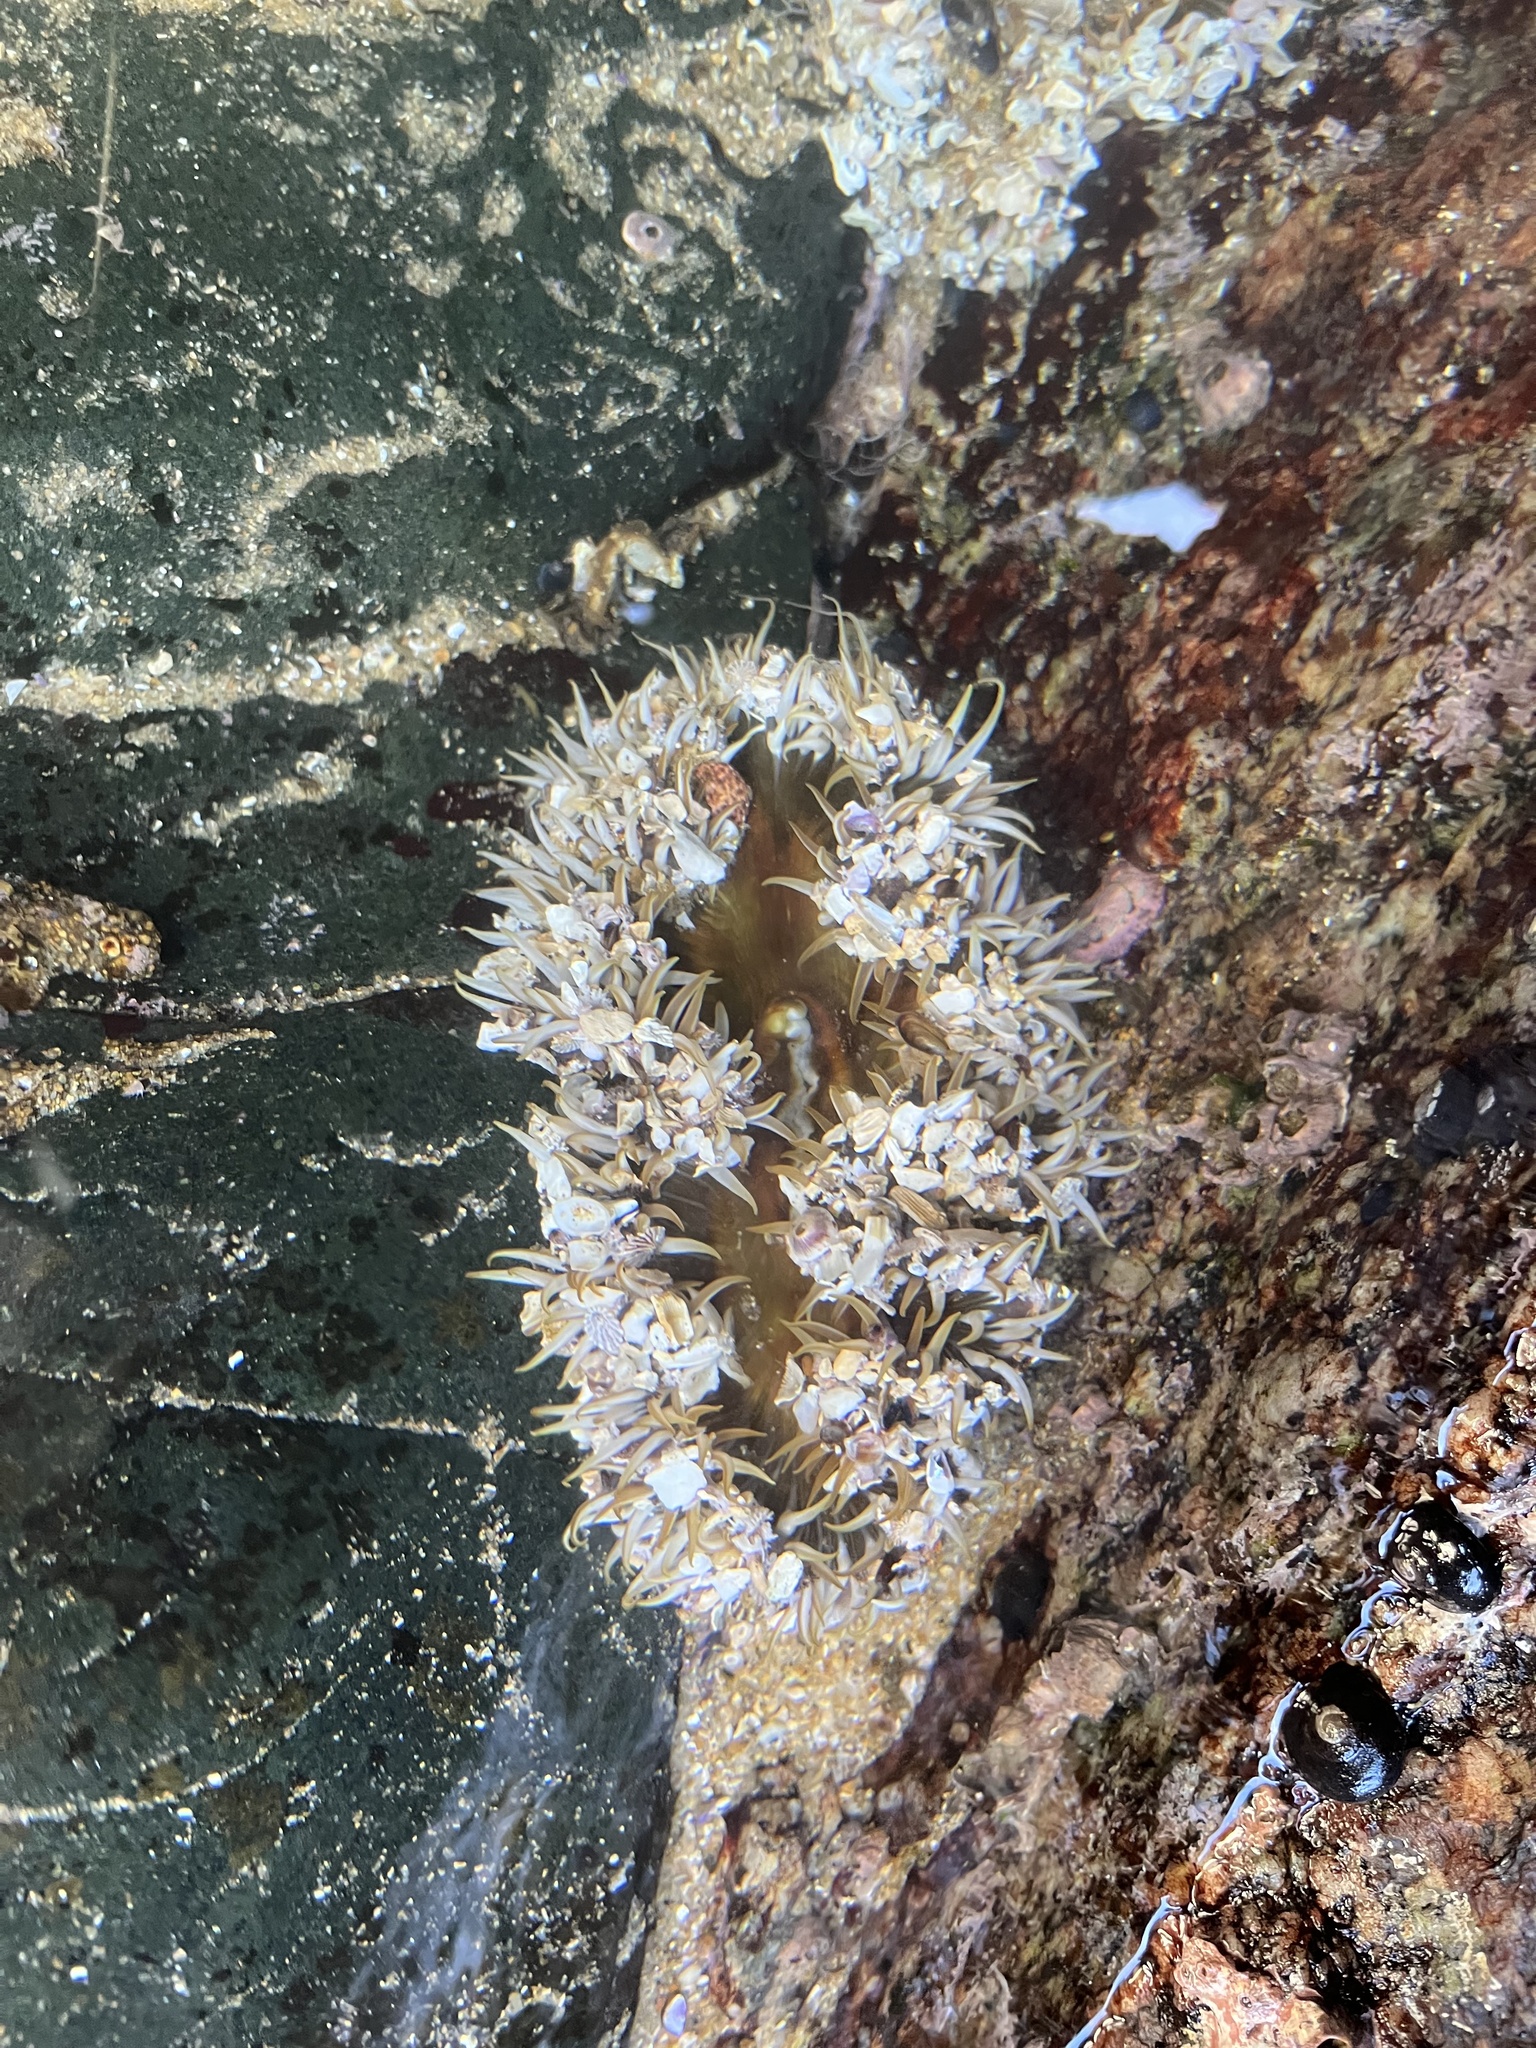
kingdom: Animalia
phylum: Cnidaria
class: Anthozoa
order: Actiniaria
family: Actiniidae
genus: Oulactis
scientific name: Oulactis concinnata
